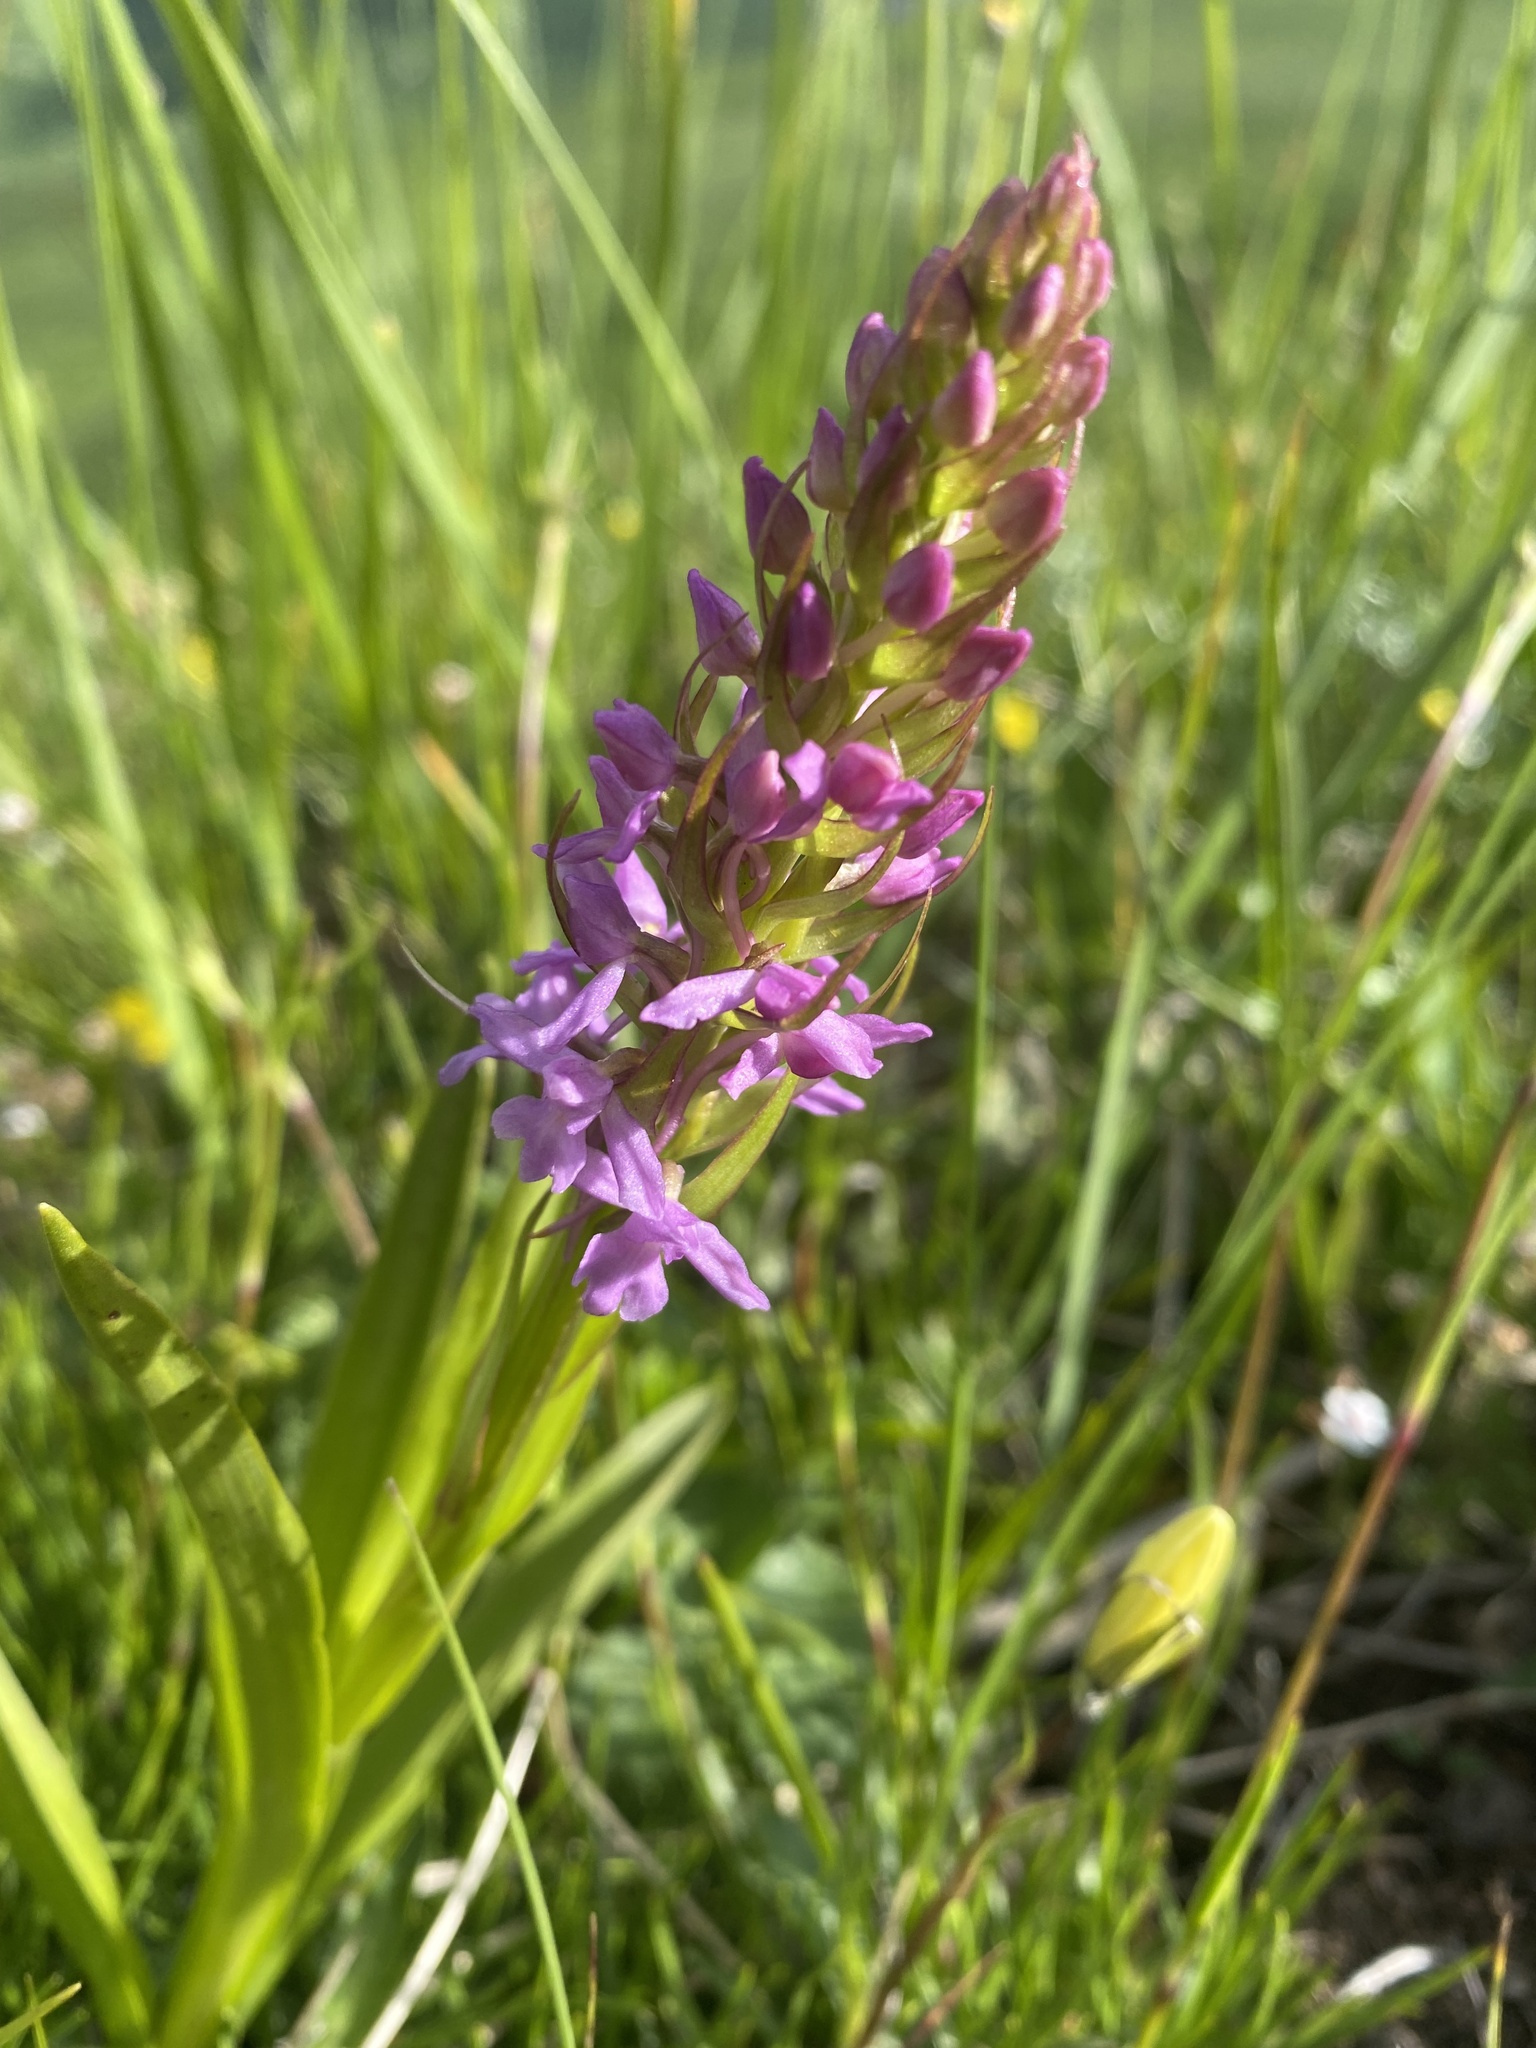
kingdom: Plantae
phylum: Tracheophyta
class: Liliopsida
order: Asparagales
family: Orchidaceae
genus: Gymnadenia
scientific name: Gymnadenia conopsea
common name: Fragrant orchid
